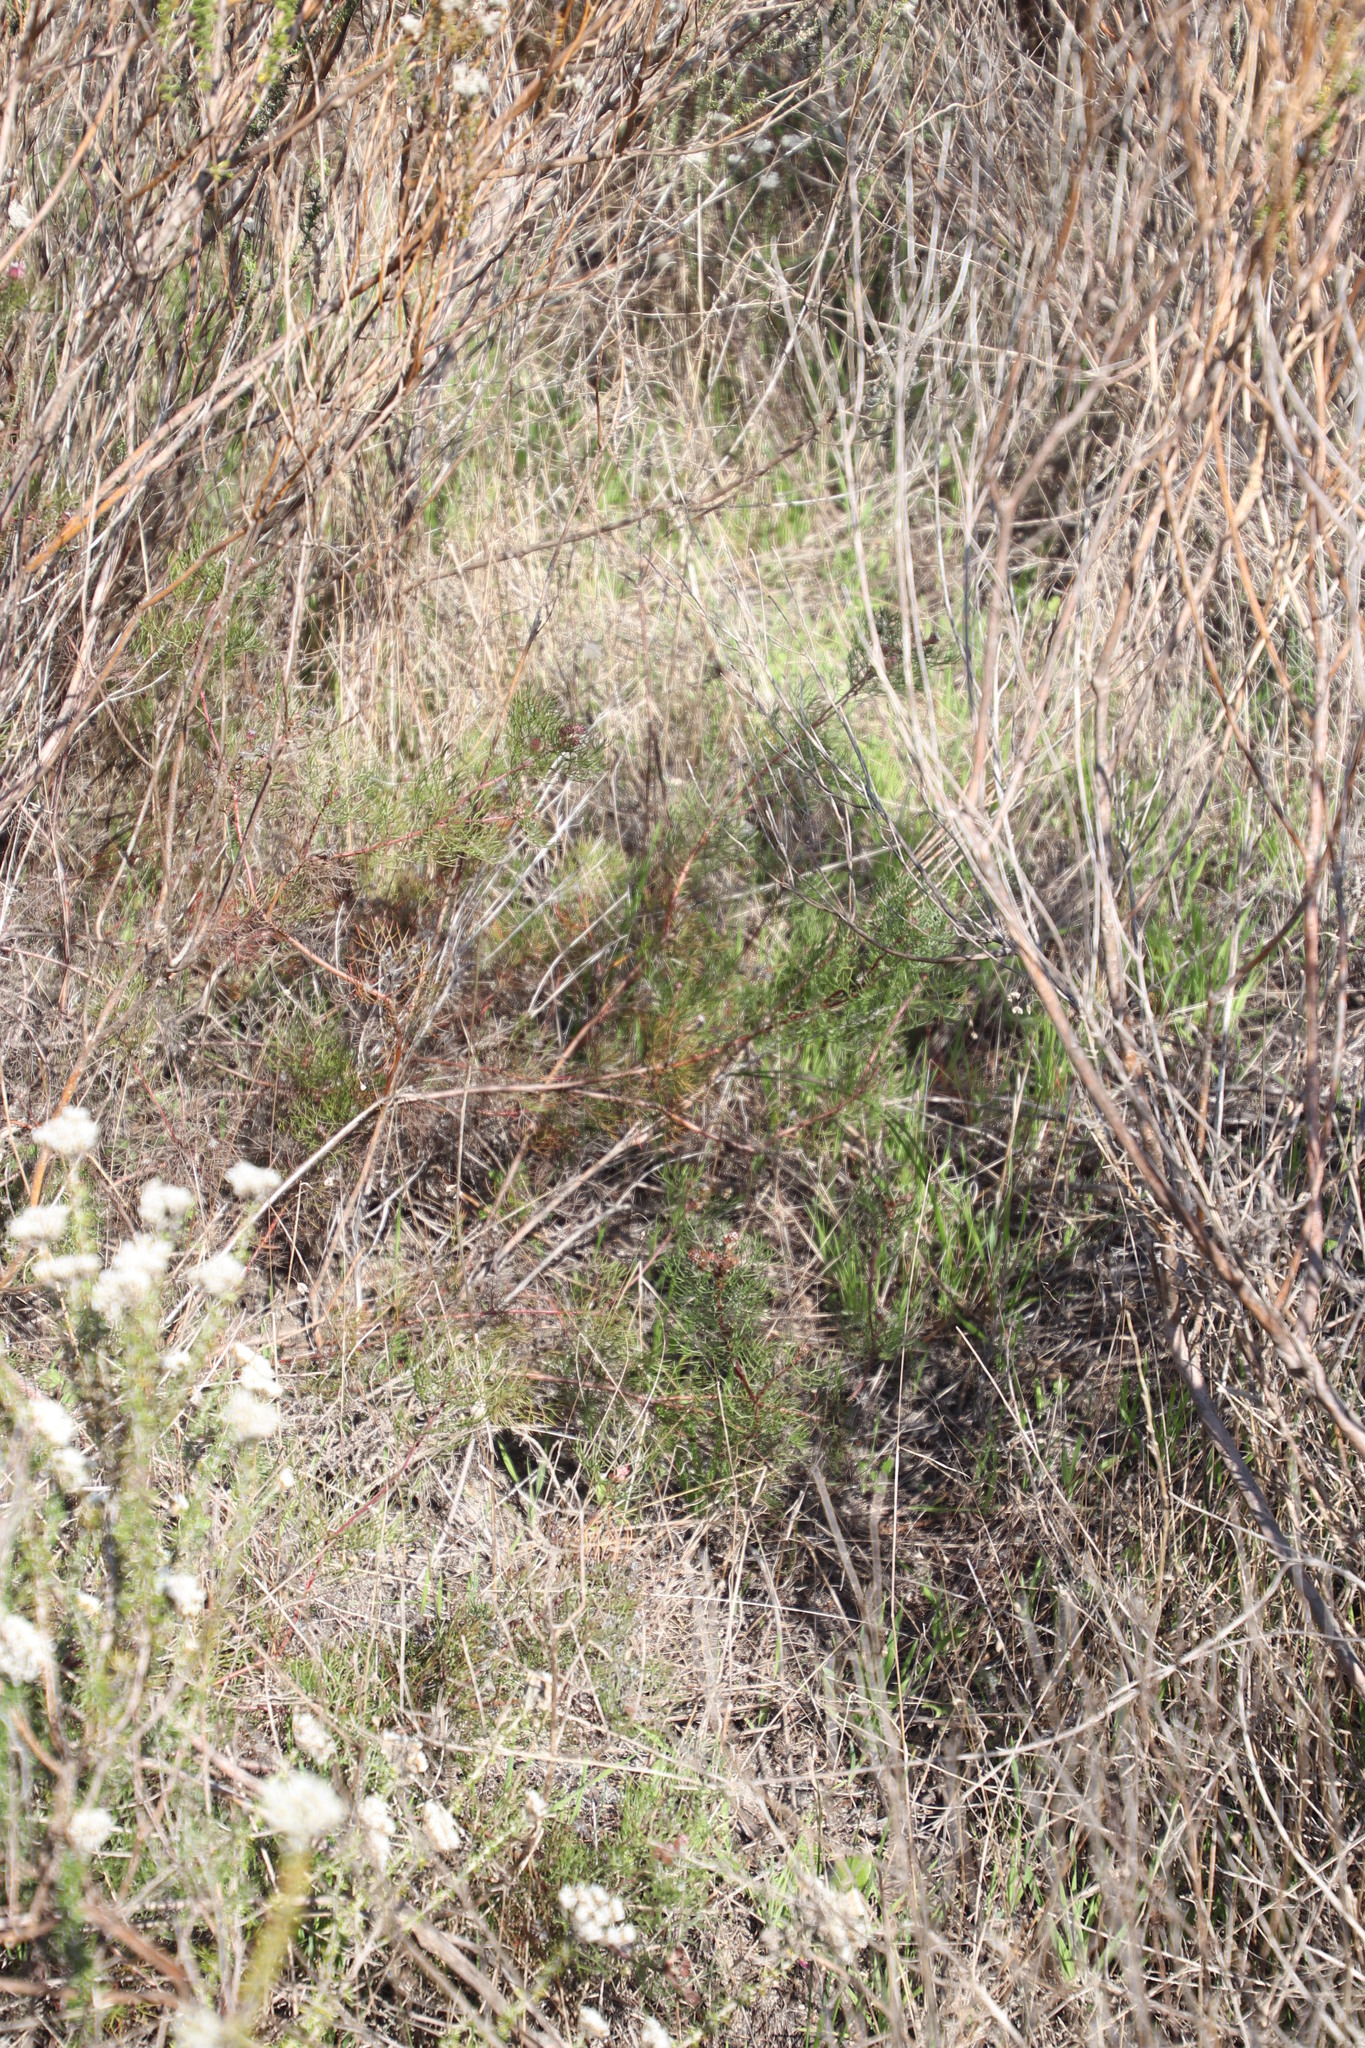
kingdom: Plantae
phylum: Tracheophyta
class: Magnoliopsida
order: Proteales
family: Proteaceae
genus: Serruria
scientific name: Serruria fasciflora
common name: Common pin spiderhead
